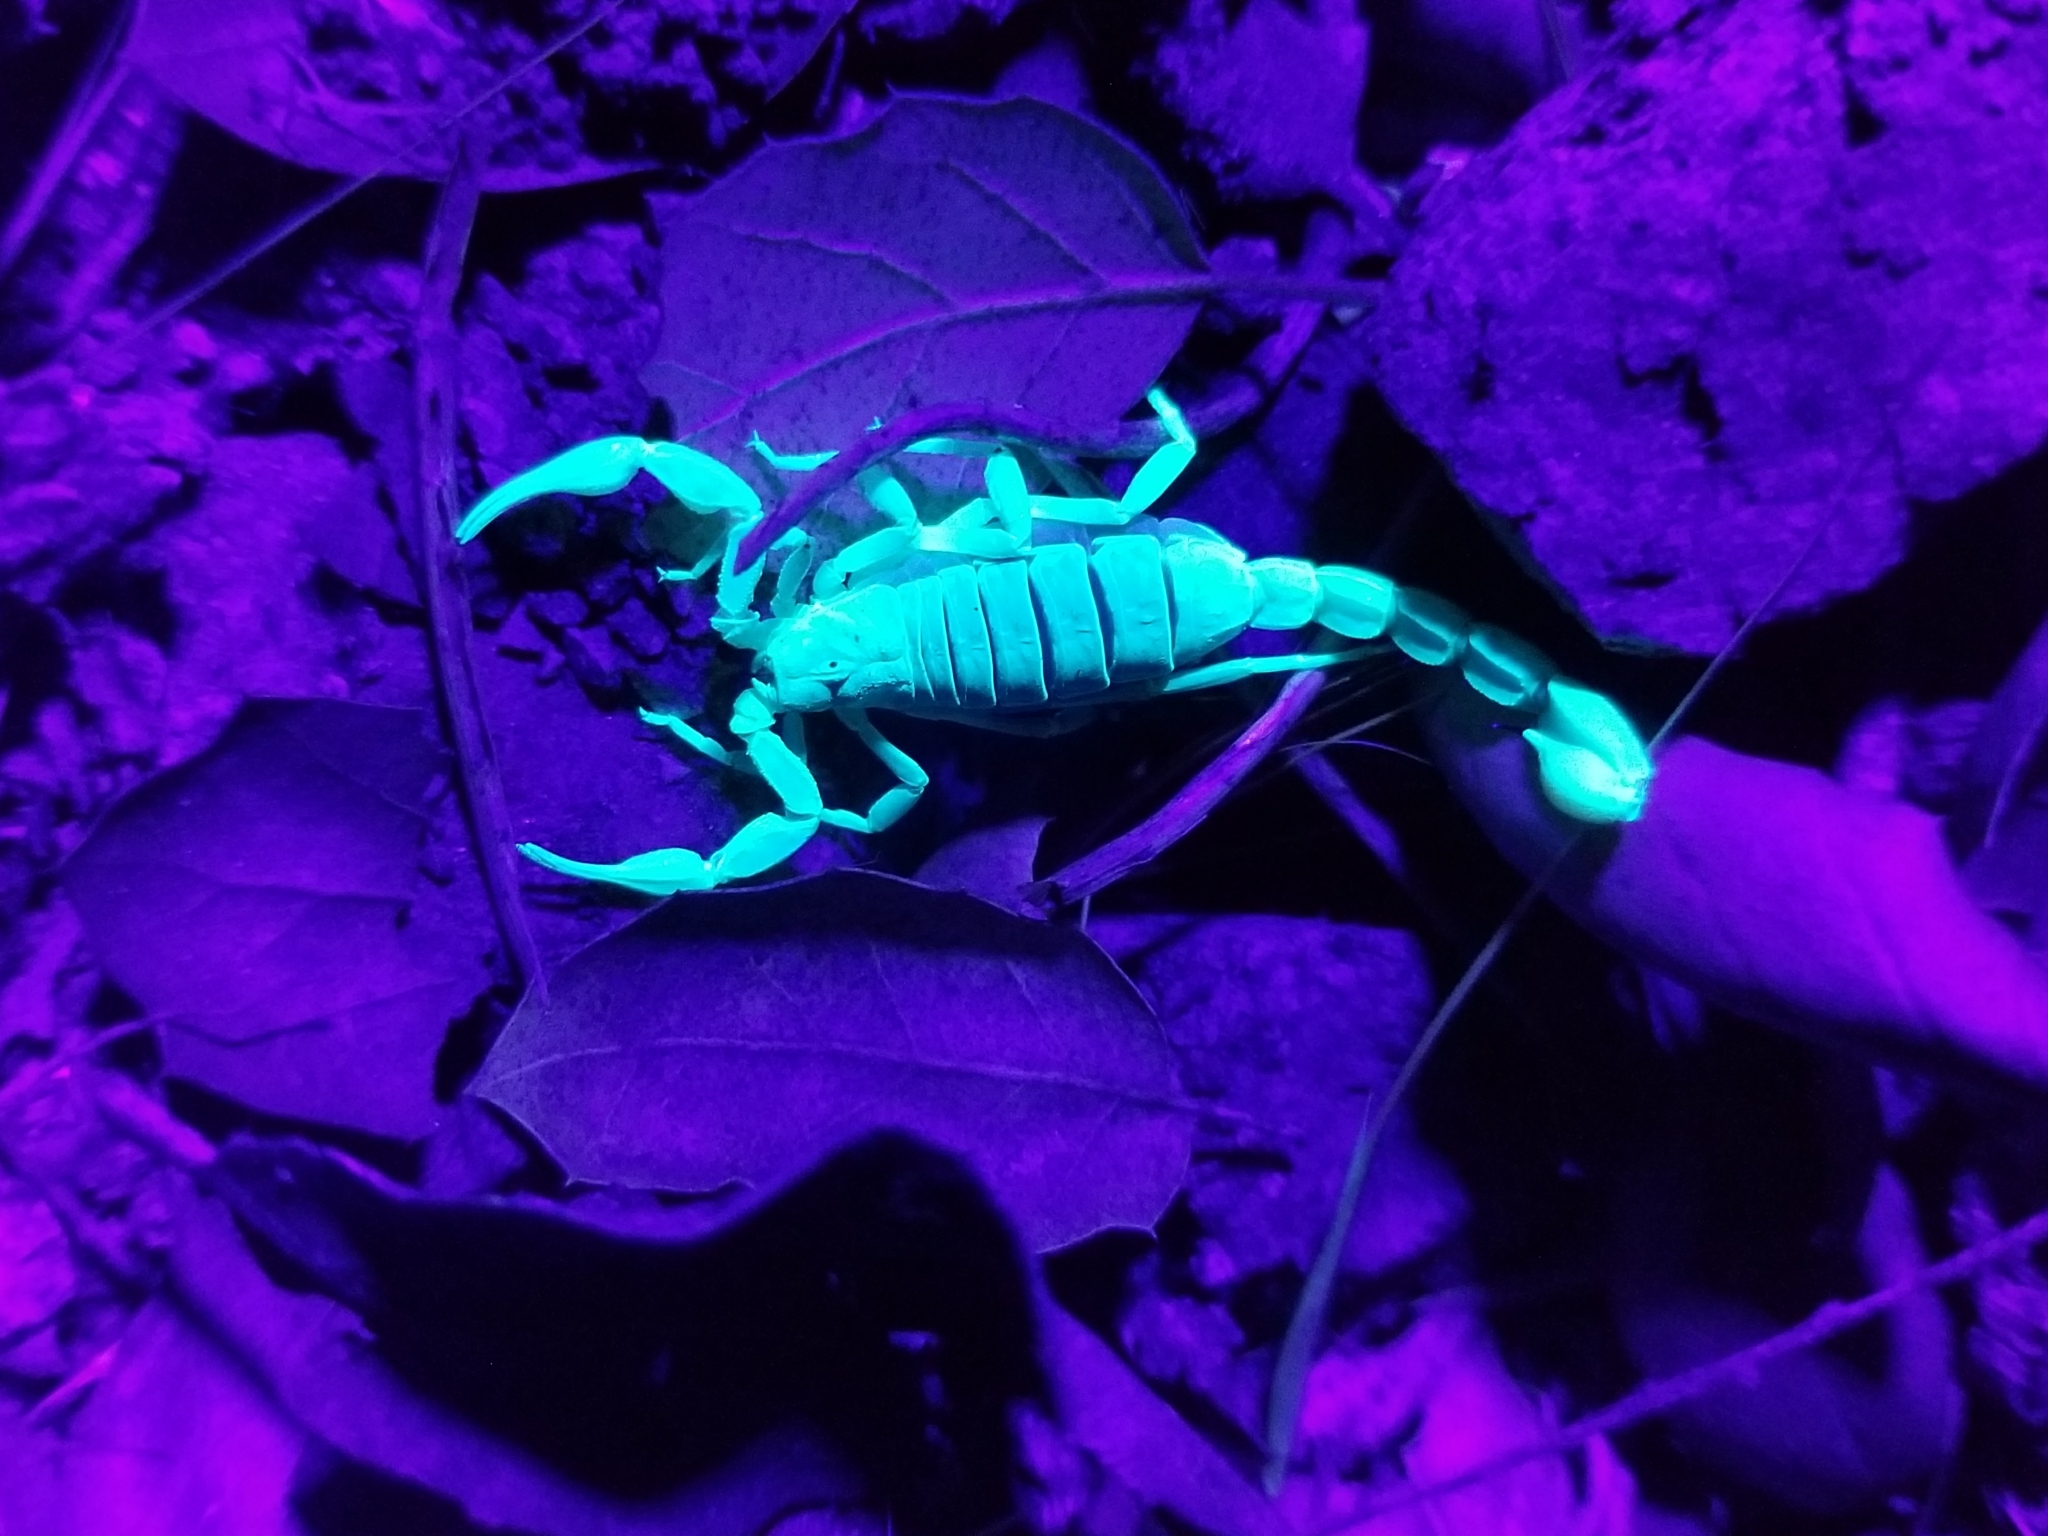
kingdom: Animalia
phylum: Arthropoda
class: Arachnida
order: Scorpiones
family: Vaejovidae
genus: Paruroctonus
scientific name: Paruroctonus silvestrii
